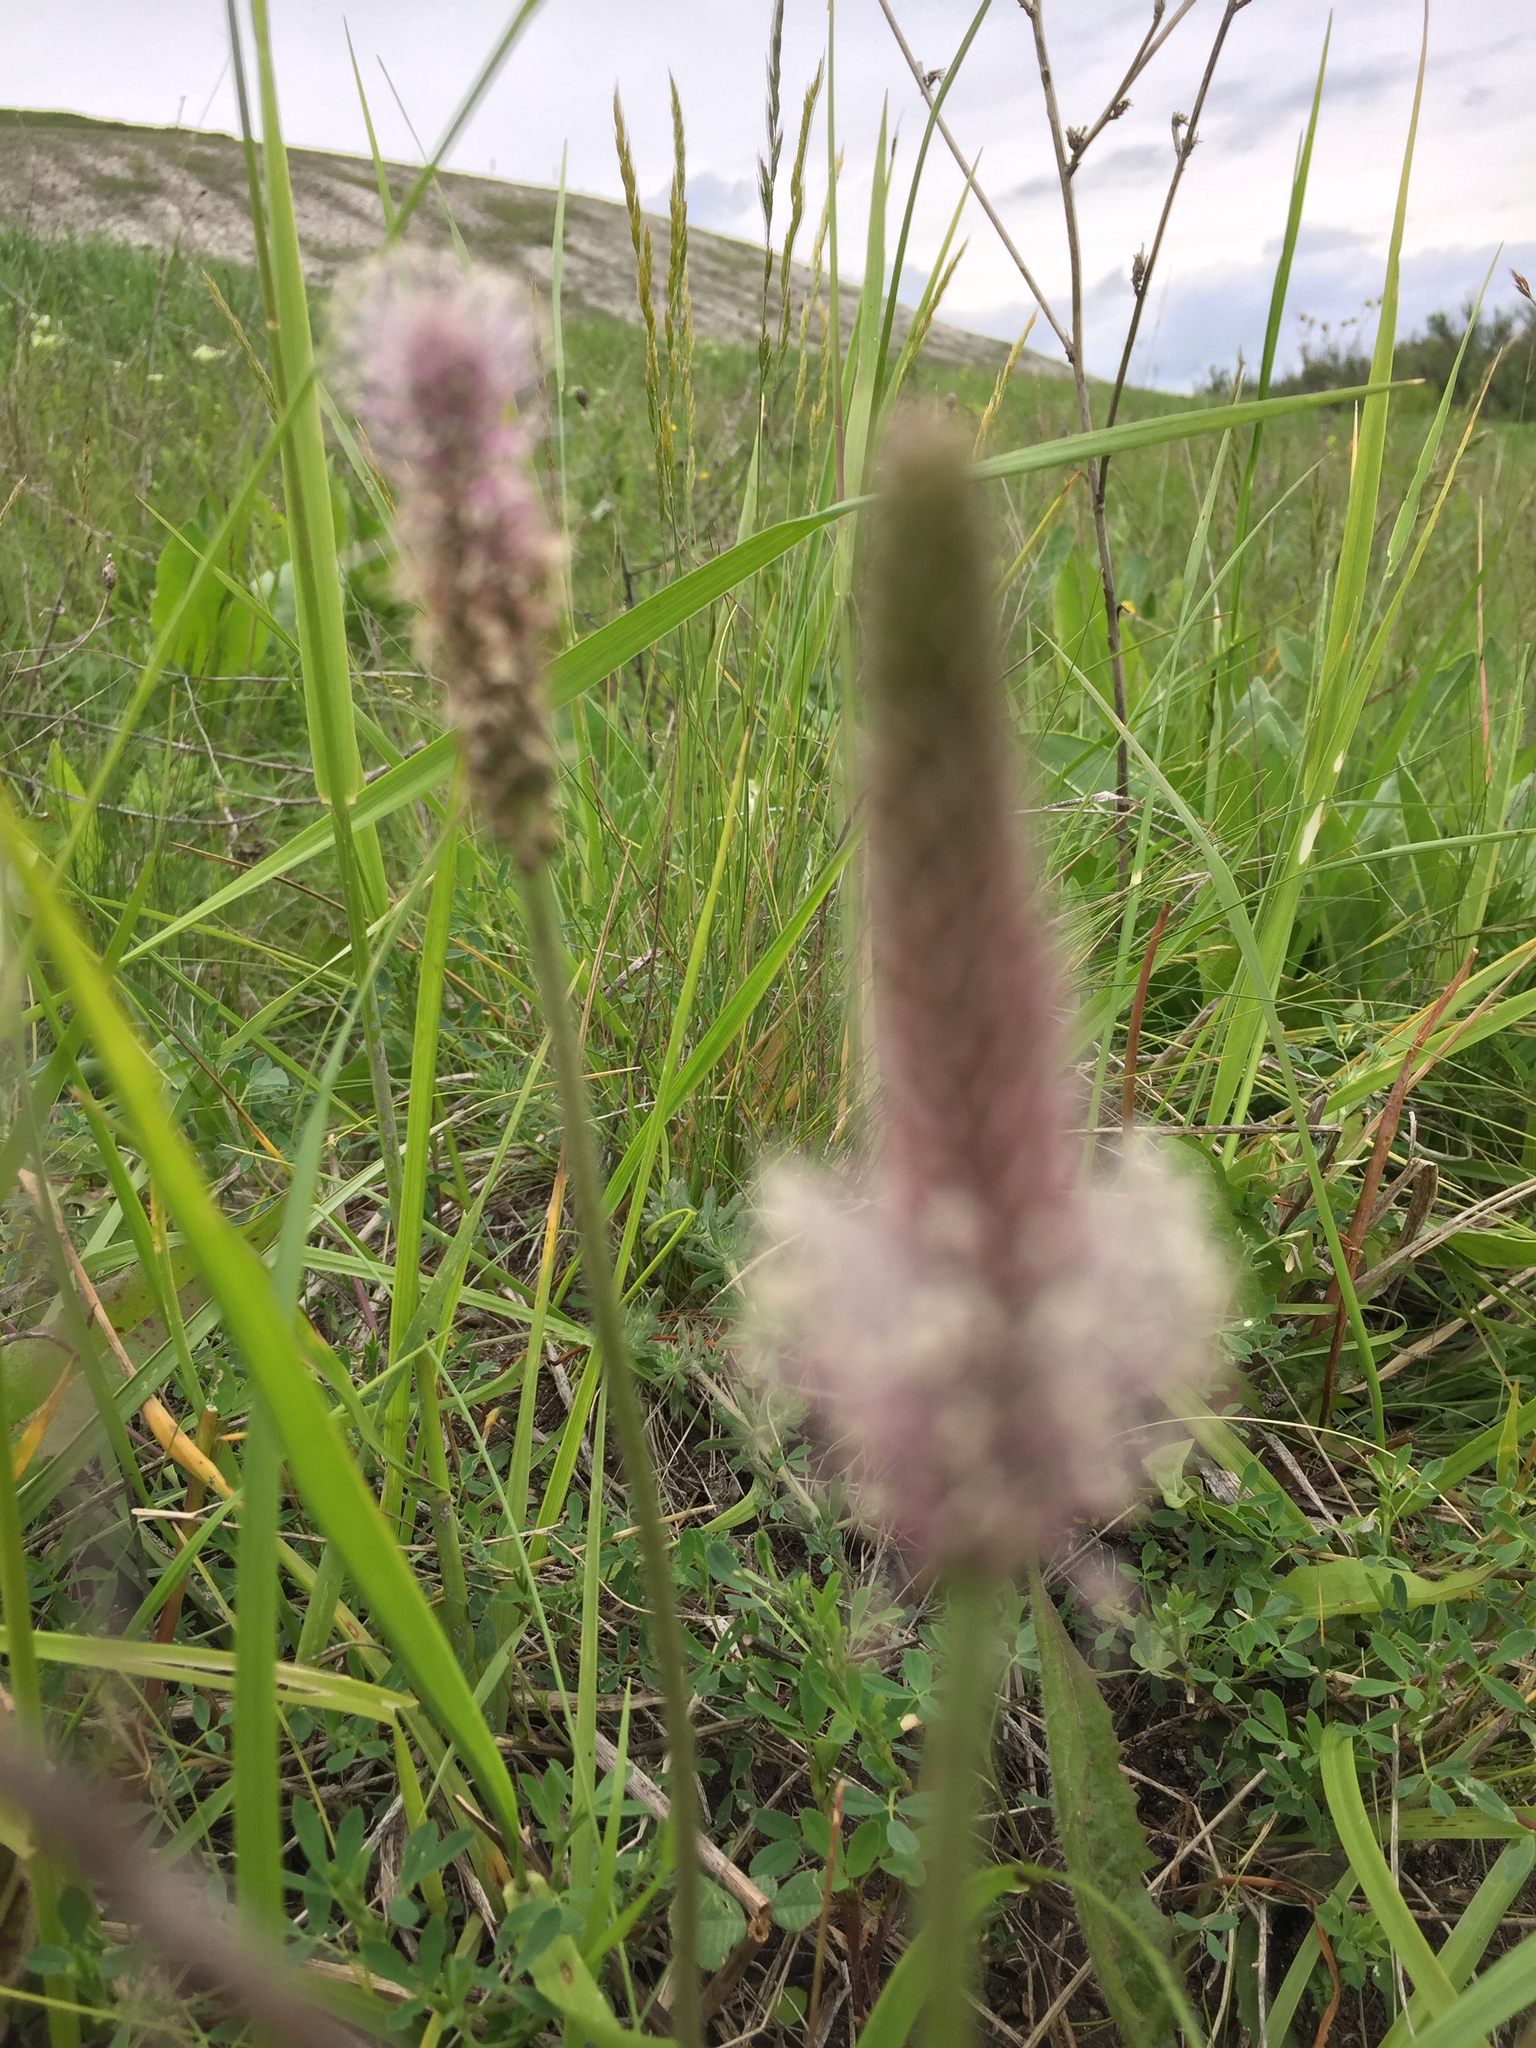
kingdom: Plantae
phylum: Tracheophyta
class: Magnoliopsida
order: Lamiales
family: Plantaginaceae
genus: Plantago
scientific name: Plantago media
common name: Hoary plantain
